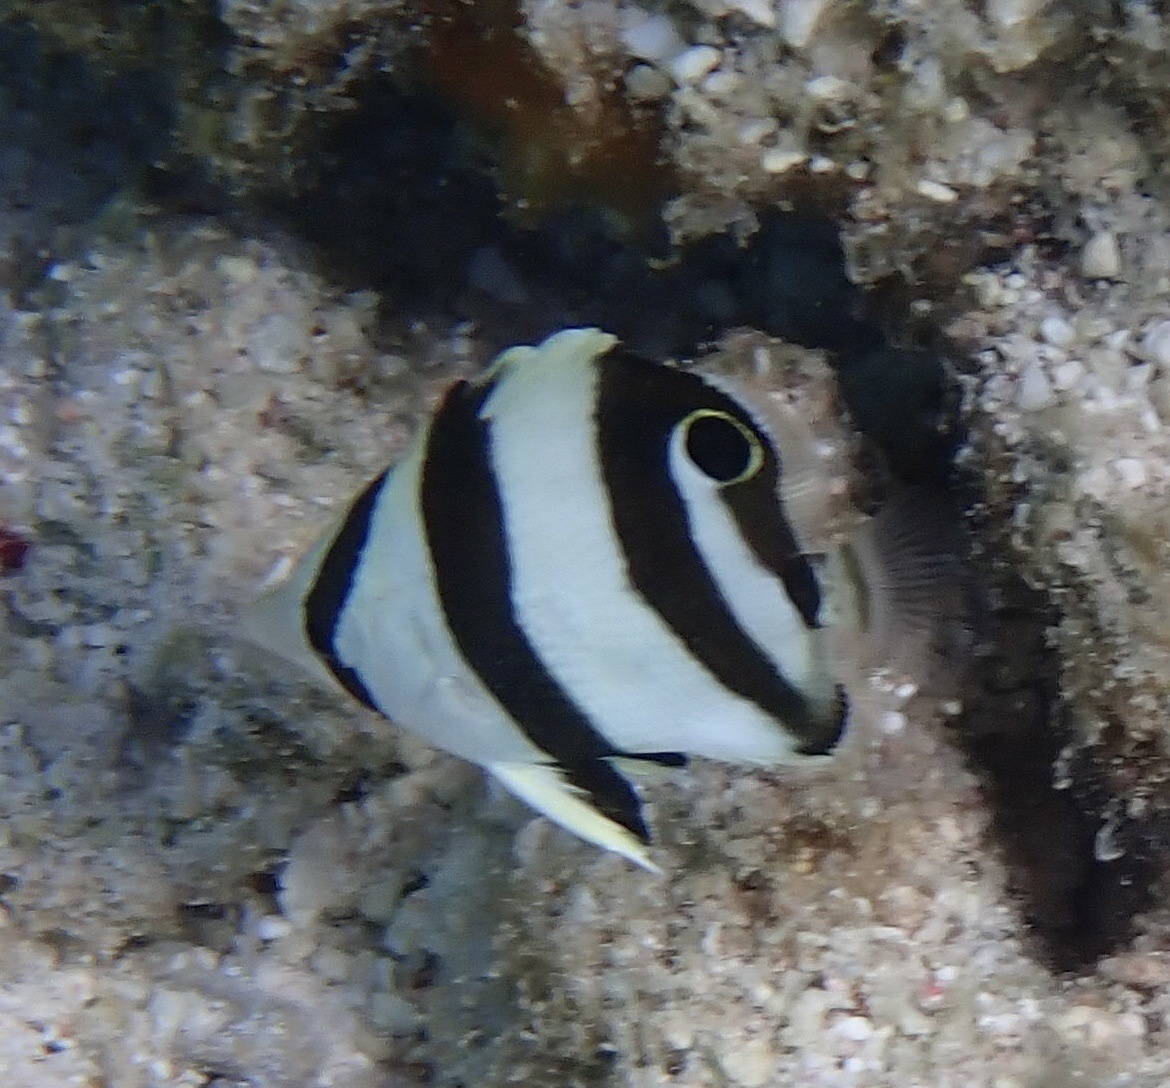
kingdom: Animalia
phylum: Chordata
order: Perciformes
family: Chaetodontidae
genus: Chaetodon
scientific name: Chaetodon striatus
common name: Banded butterflyfish
